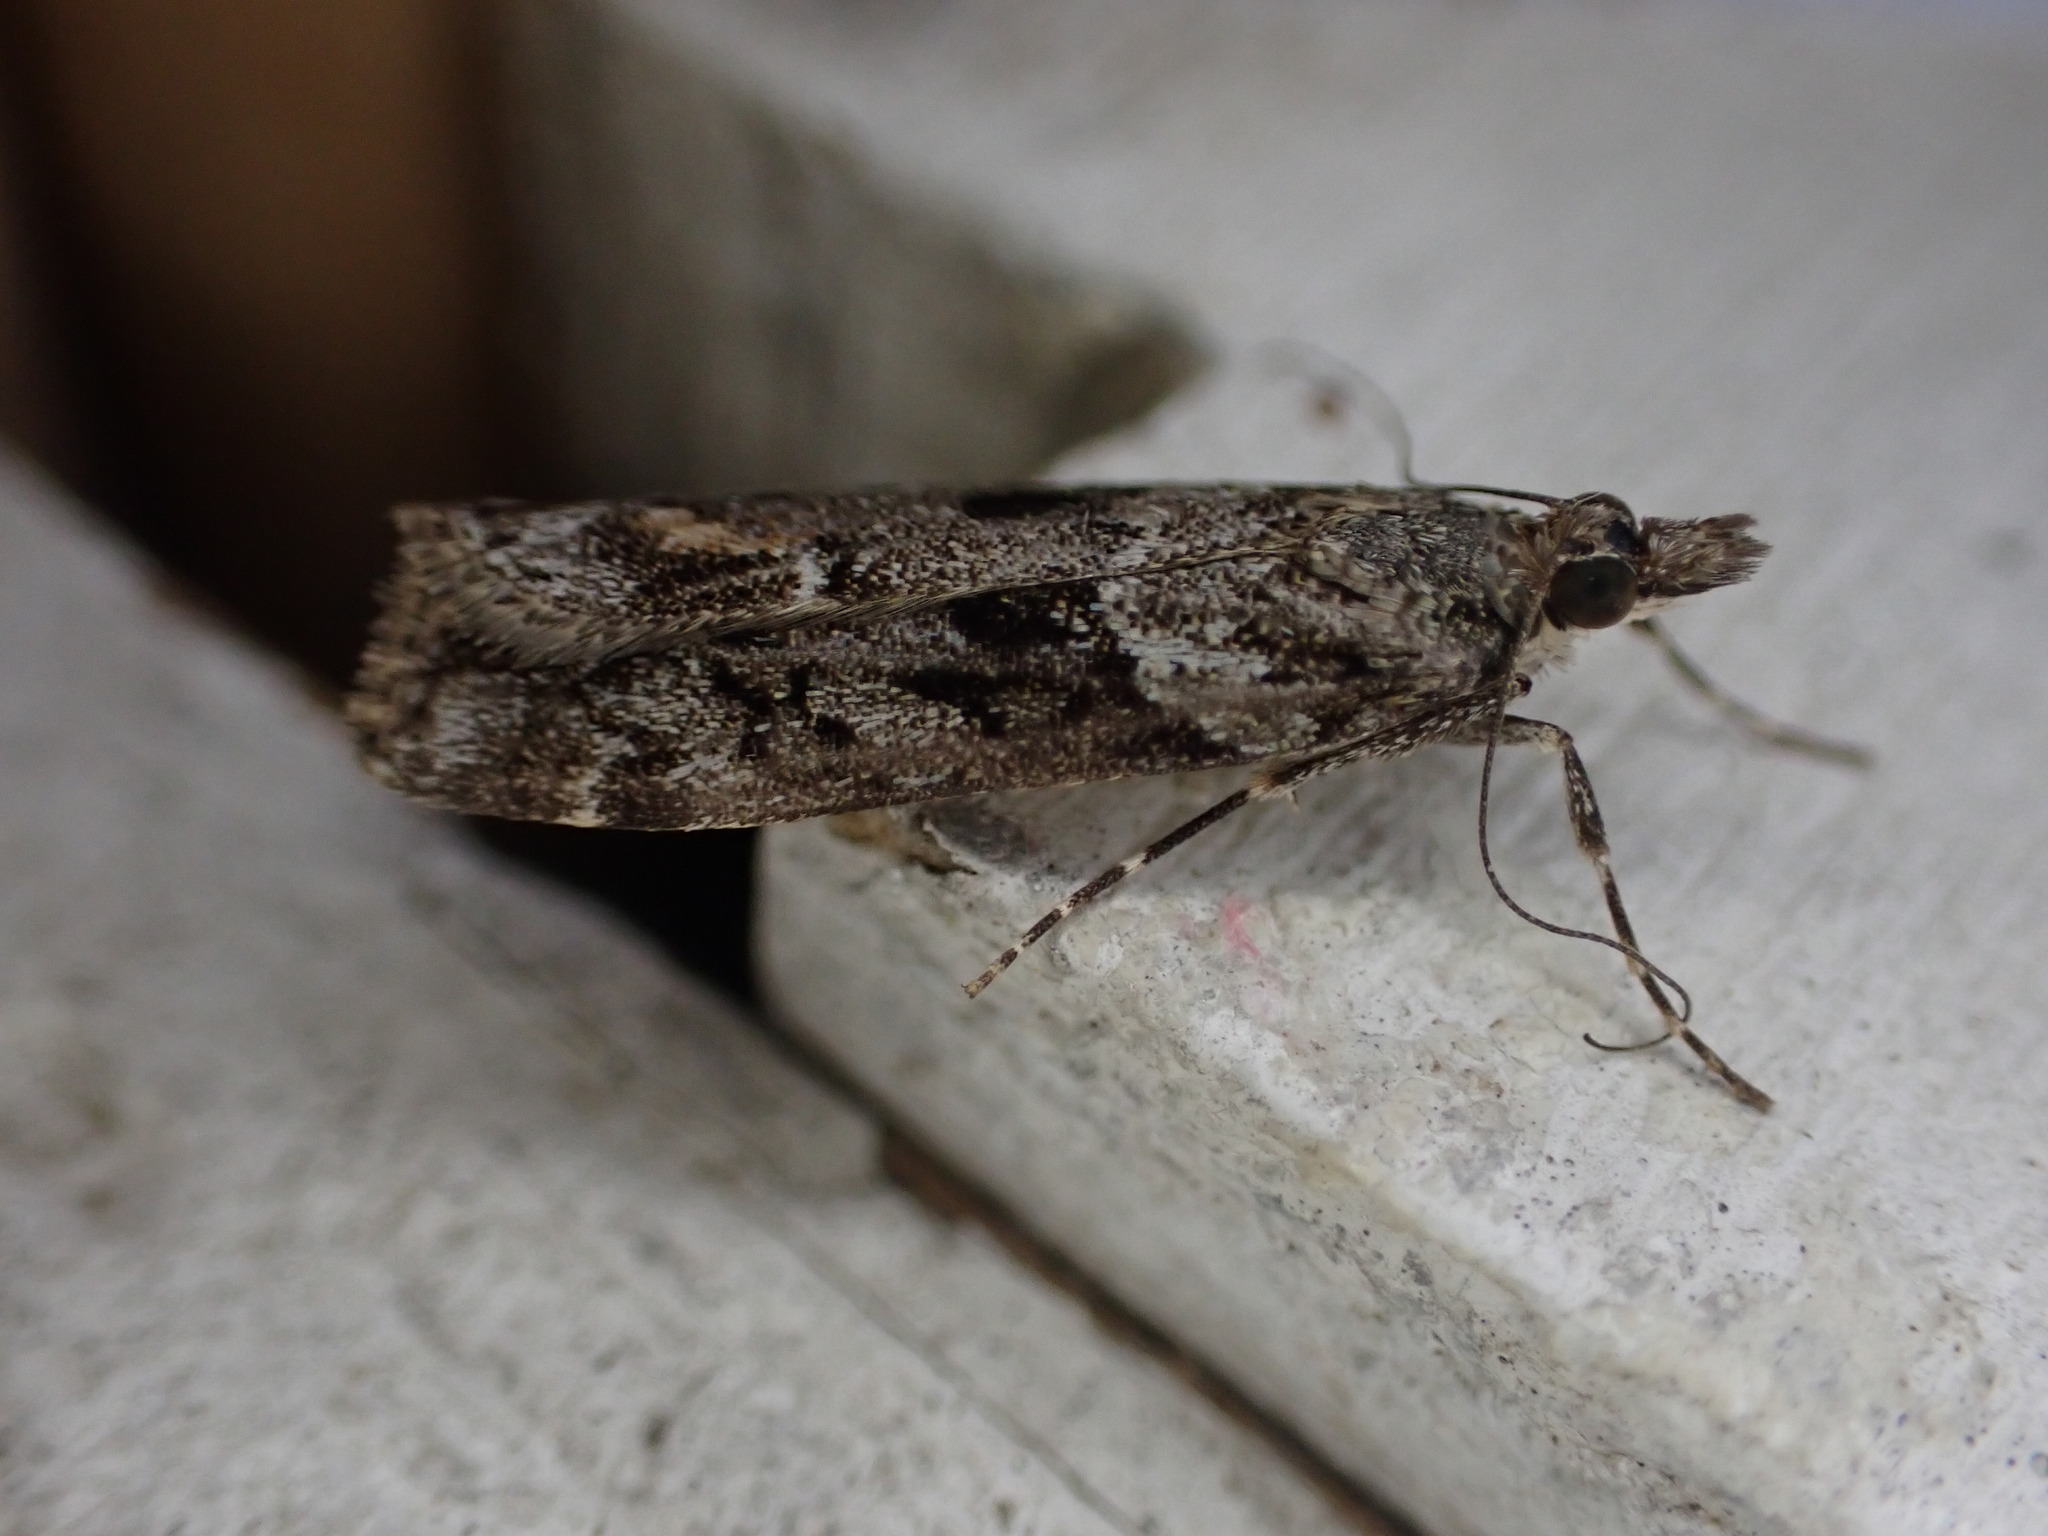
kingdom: Animalia
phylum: Arthropoda
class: Insecta
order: Lepidoptera
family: Crambidae
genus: Eudonia
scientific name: Eudonia submarginalis
